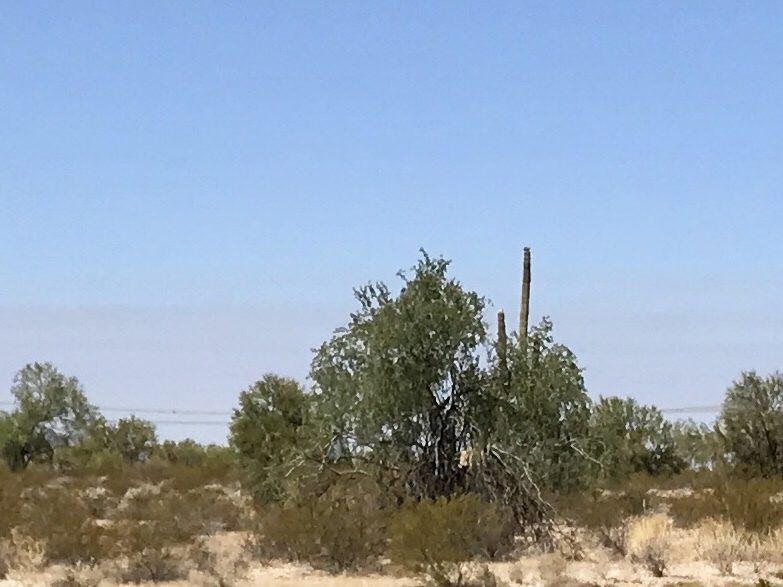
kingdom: Plantae
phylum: Tracheophyta
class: Magnoliopsida
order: Fabales
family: Fabaceae
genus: Olneya
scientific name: Olneya tesota
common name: Desert ironwood
